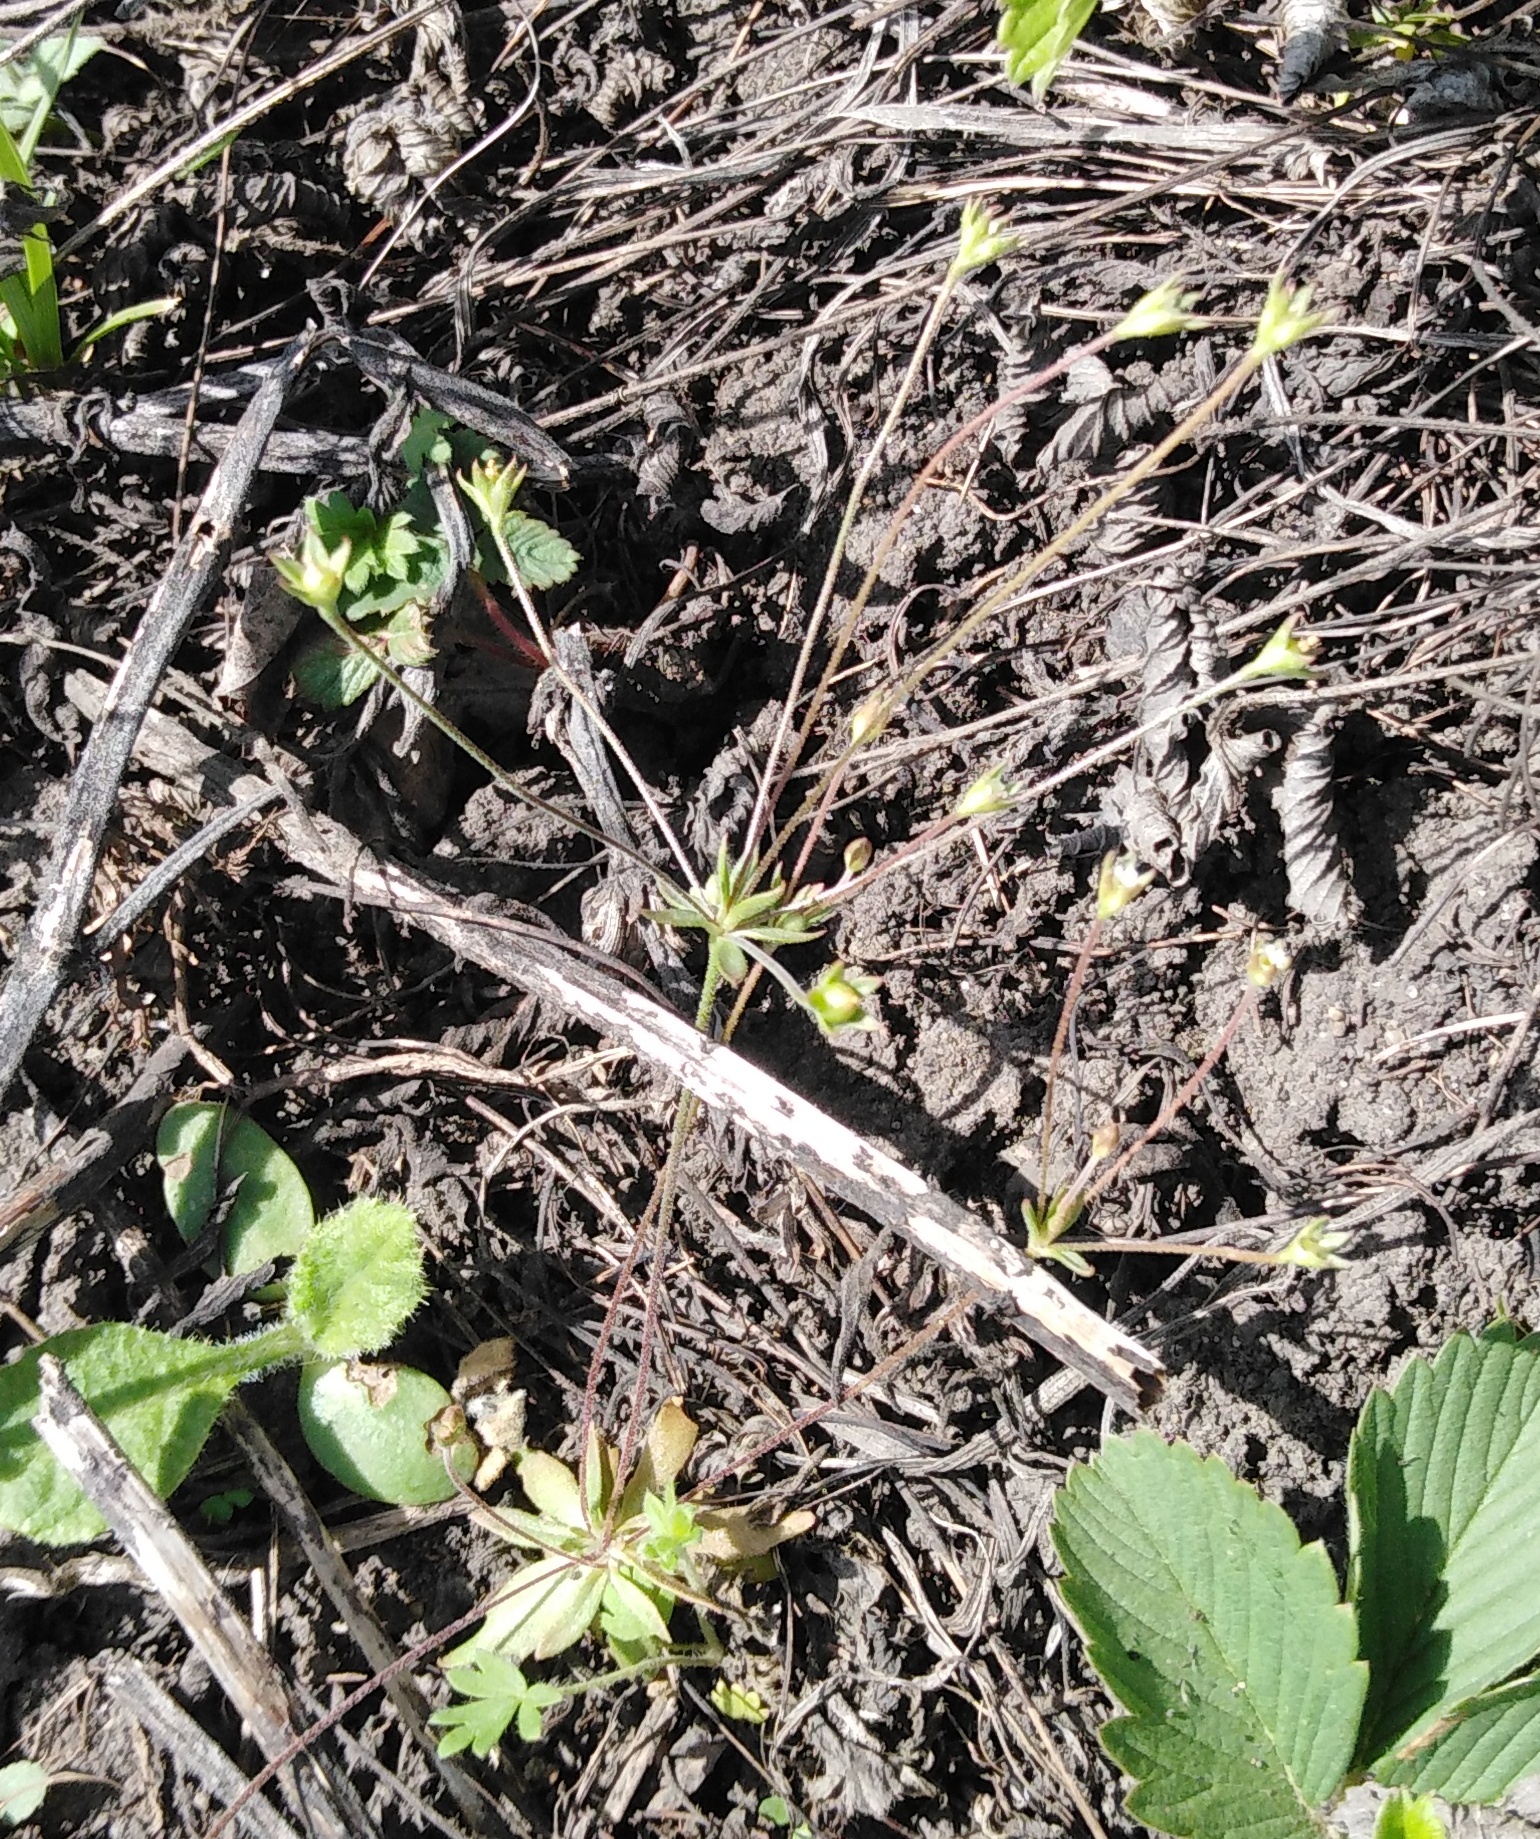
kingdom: Plantae
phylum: Tracheophyta
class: Magnoliopsida
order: Ericales
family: Primulaceae
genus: Androsace
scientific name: Androsace elongata
